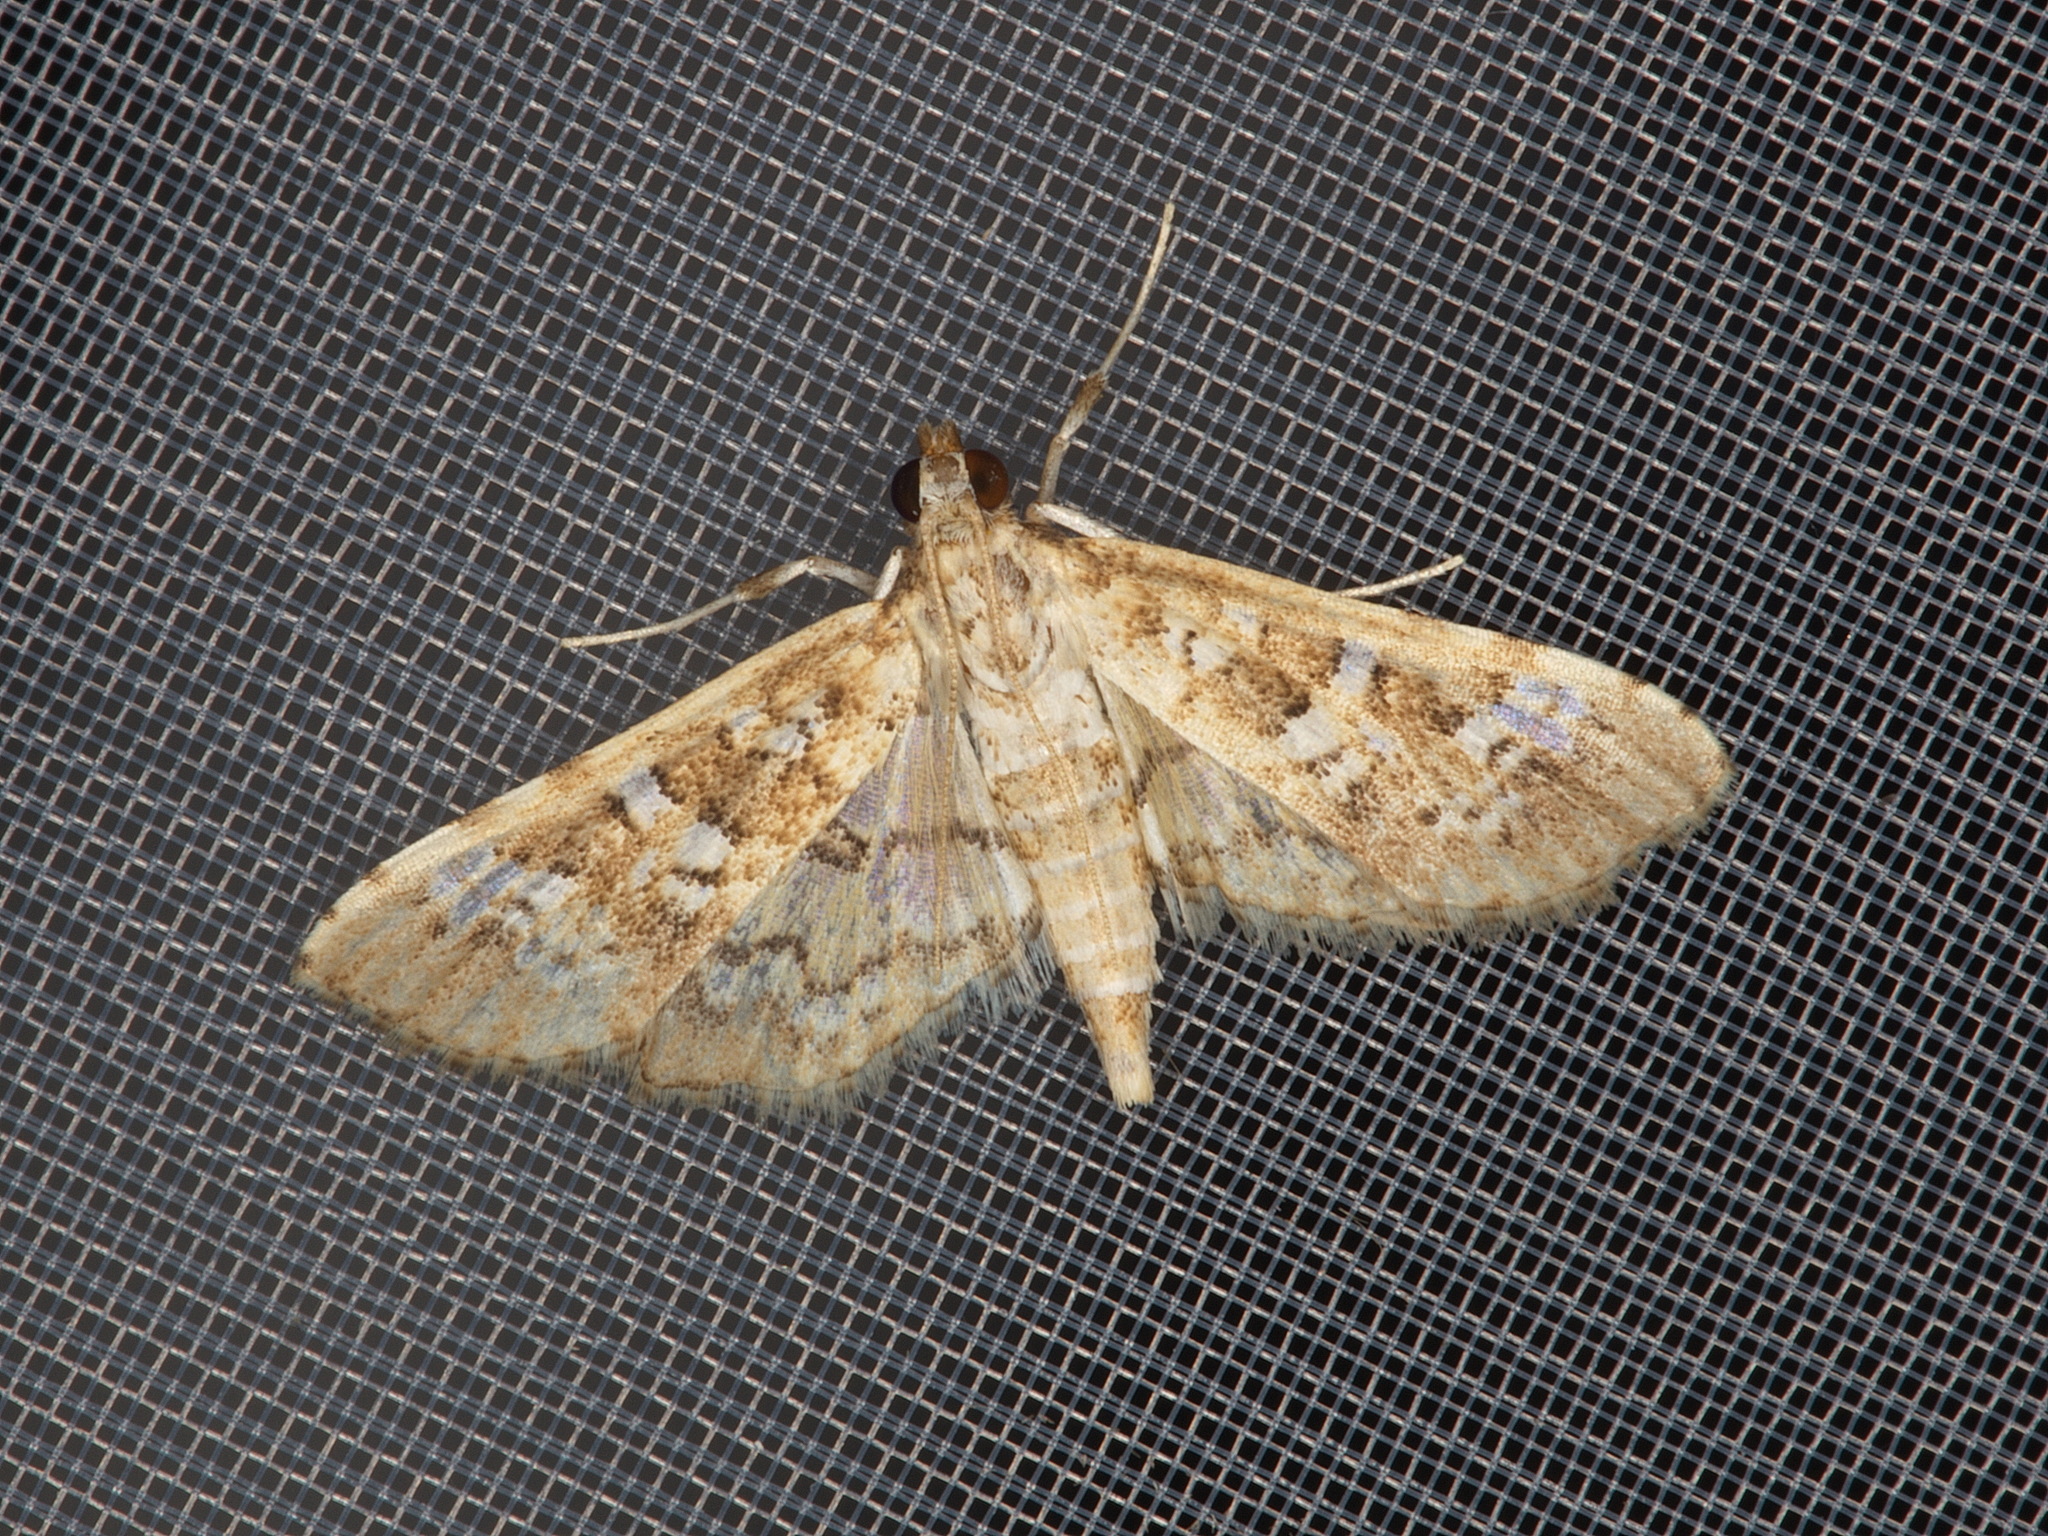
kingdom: Animalia
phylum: Arthropoda
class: Insecta
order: Lepidoptera
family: Crambidae
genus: Samea
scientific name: Samea multiplicalis
